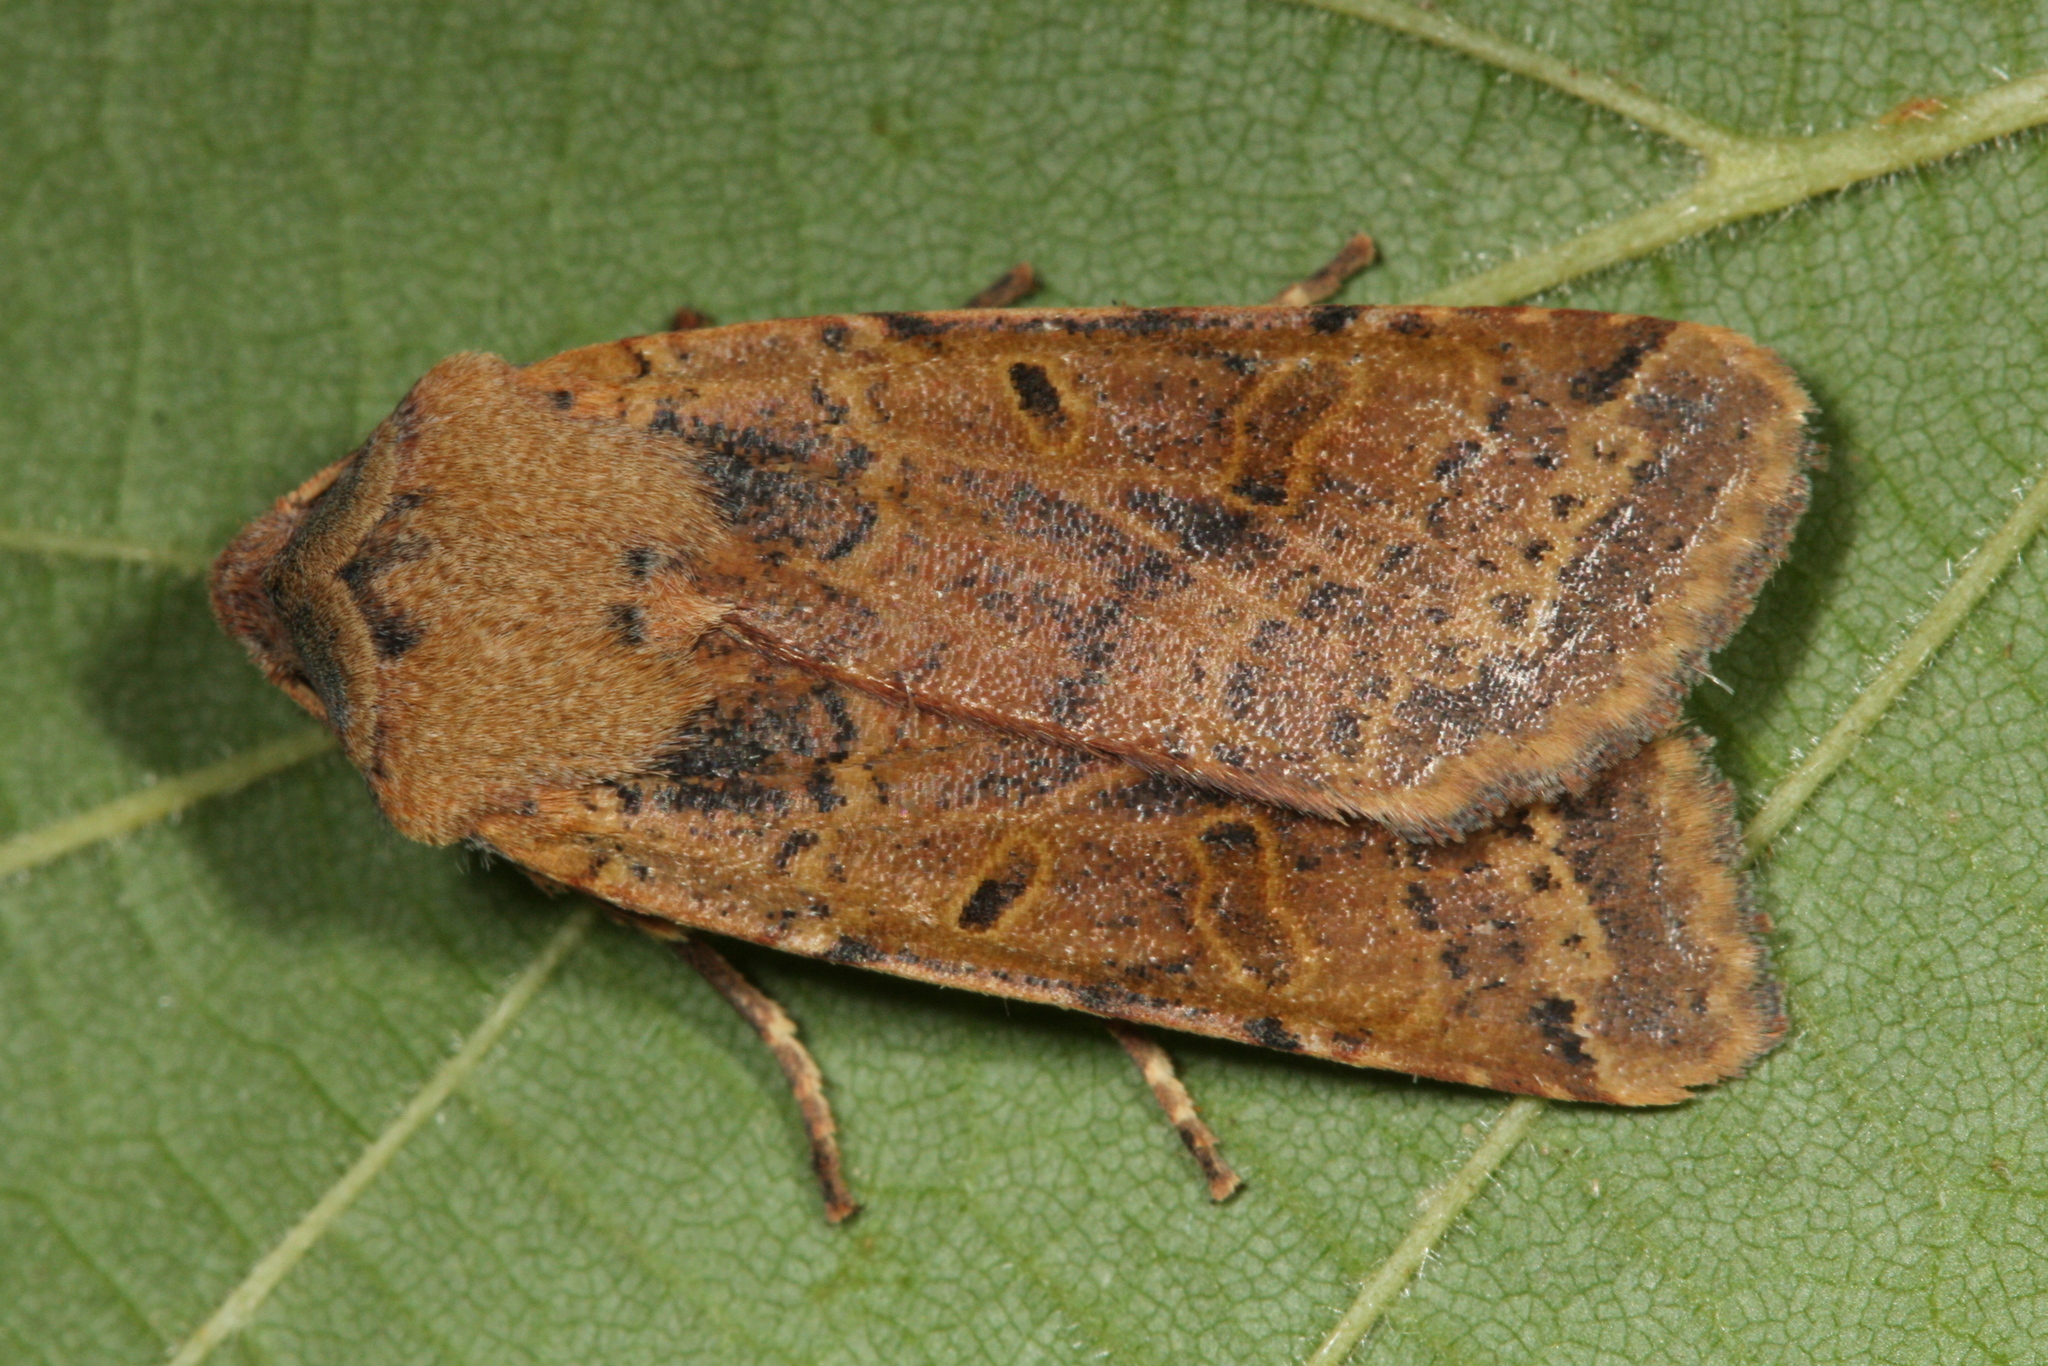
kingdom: Animalia
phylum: Arthropoda
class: Insecta
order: Lepidoptera
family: Noctuidae
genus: Agrochola
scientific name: Agrochola lychnidis
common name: Beaded chestnut
